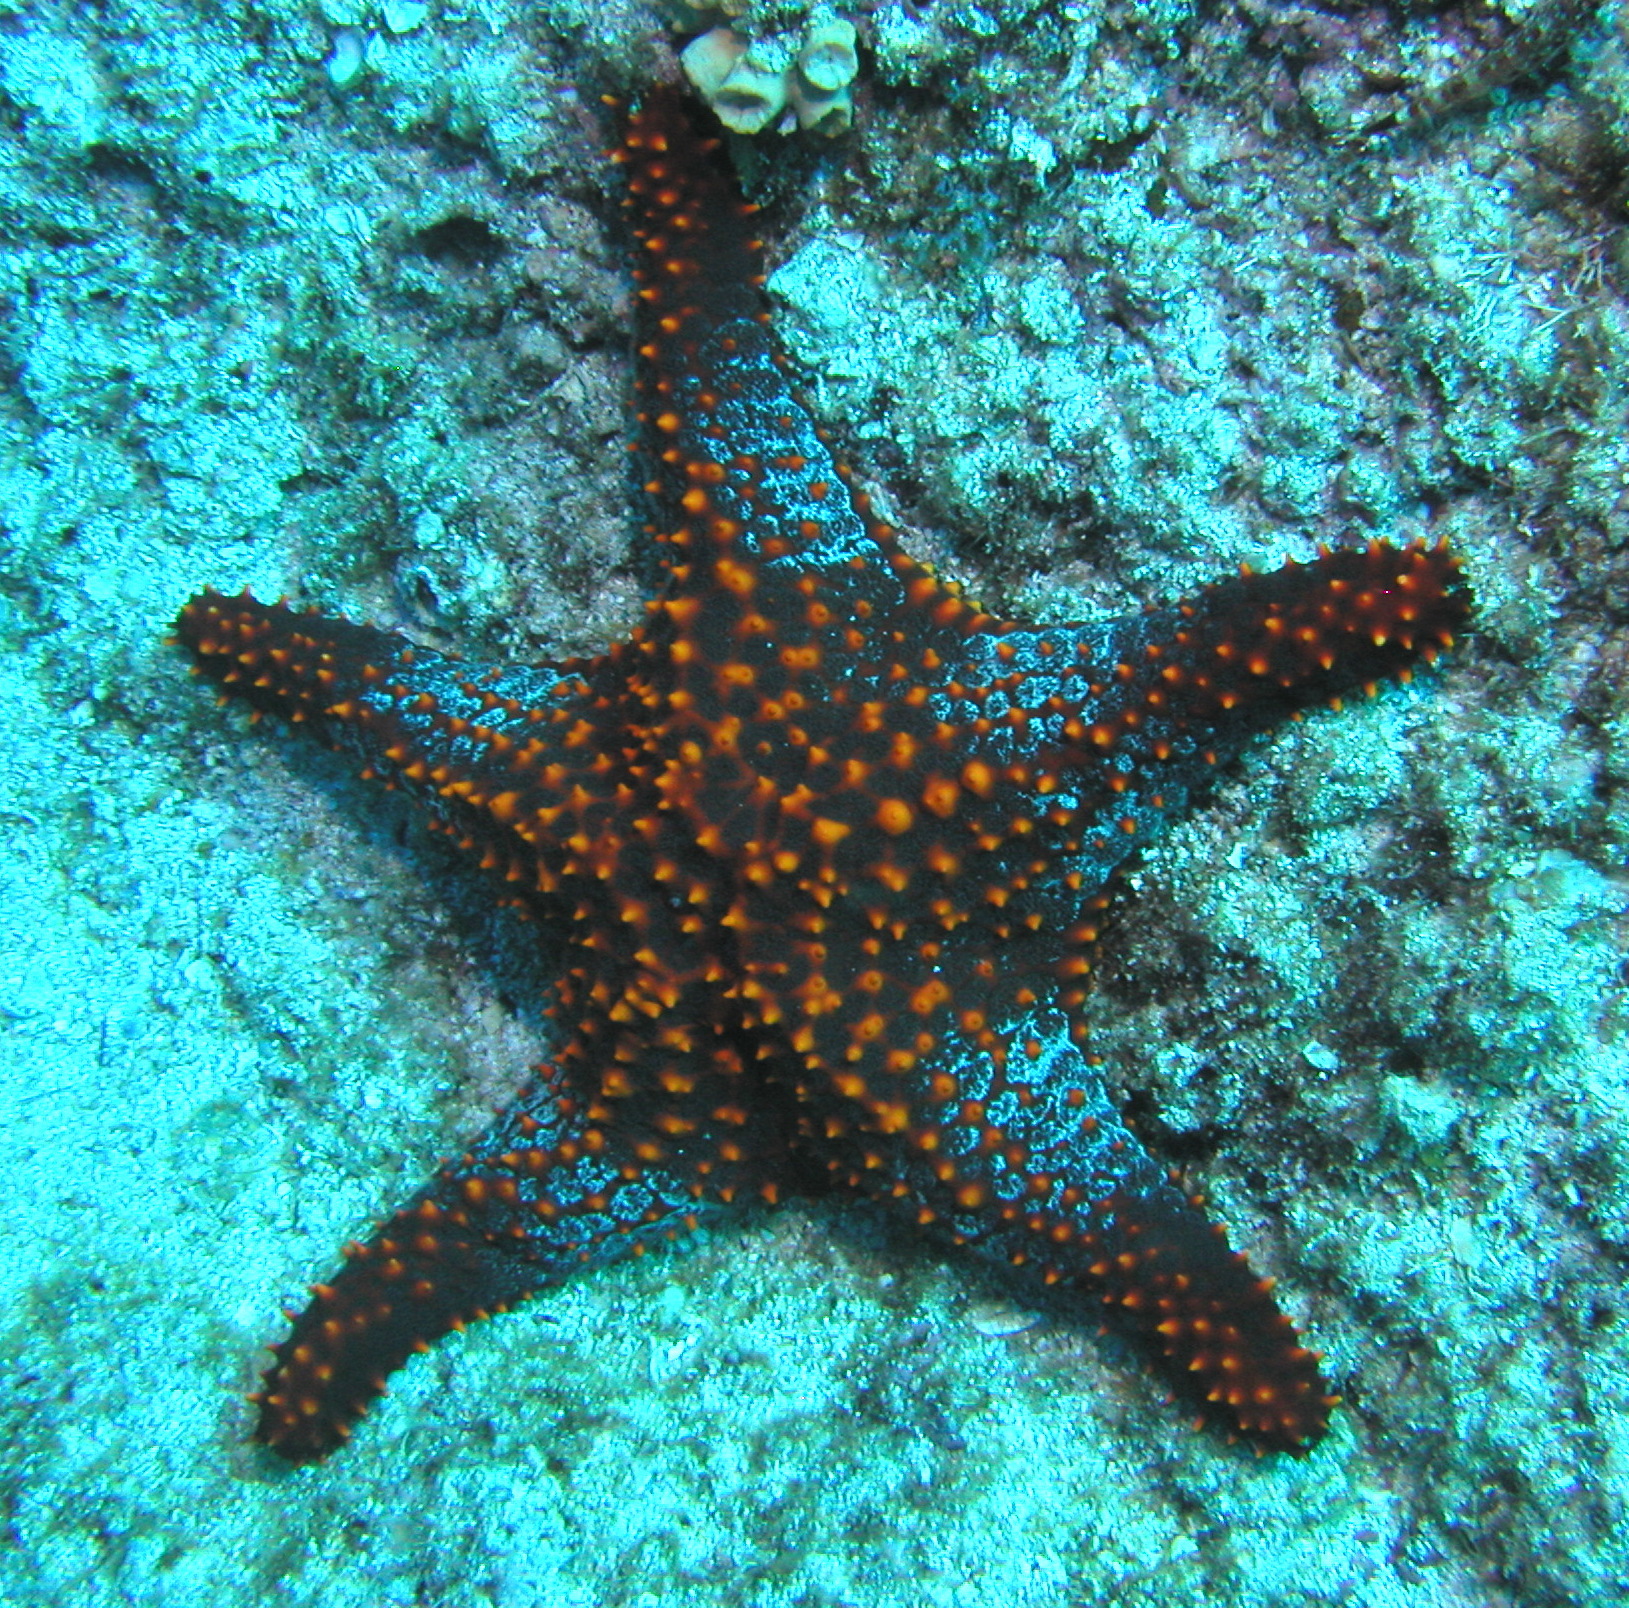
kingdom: Animalia
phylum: Echinodermata
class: Asteroidea
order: Valvatida
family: Oreasteridae
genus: Pentaceraster
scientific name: Pentaceraster cumingi
